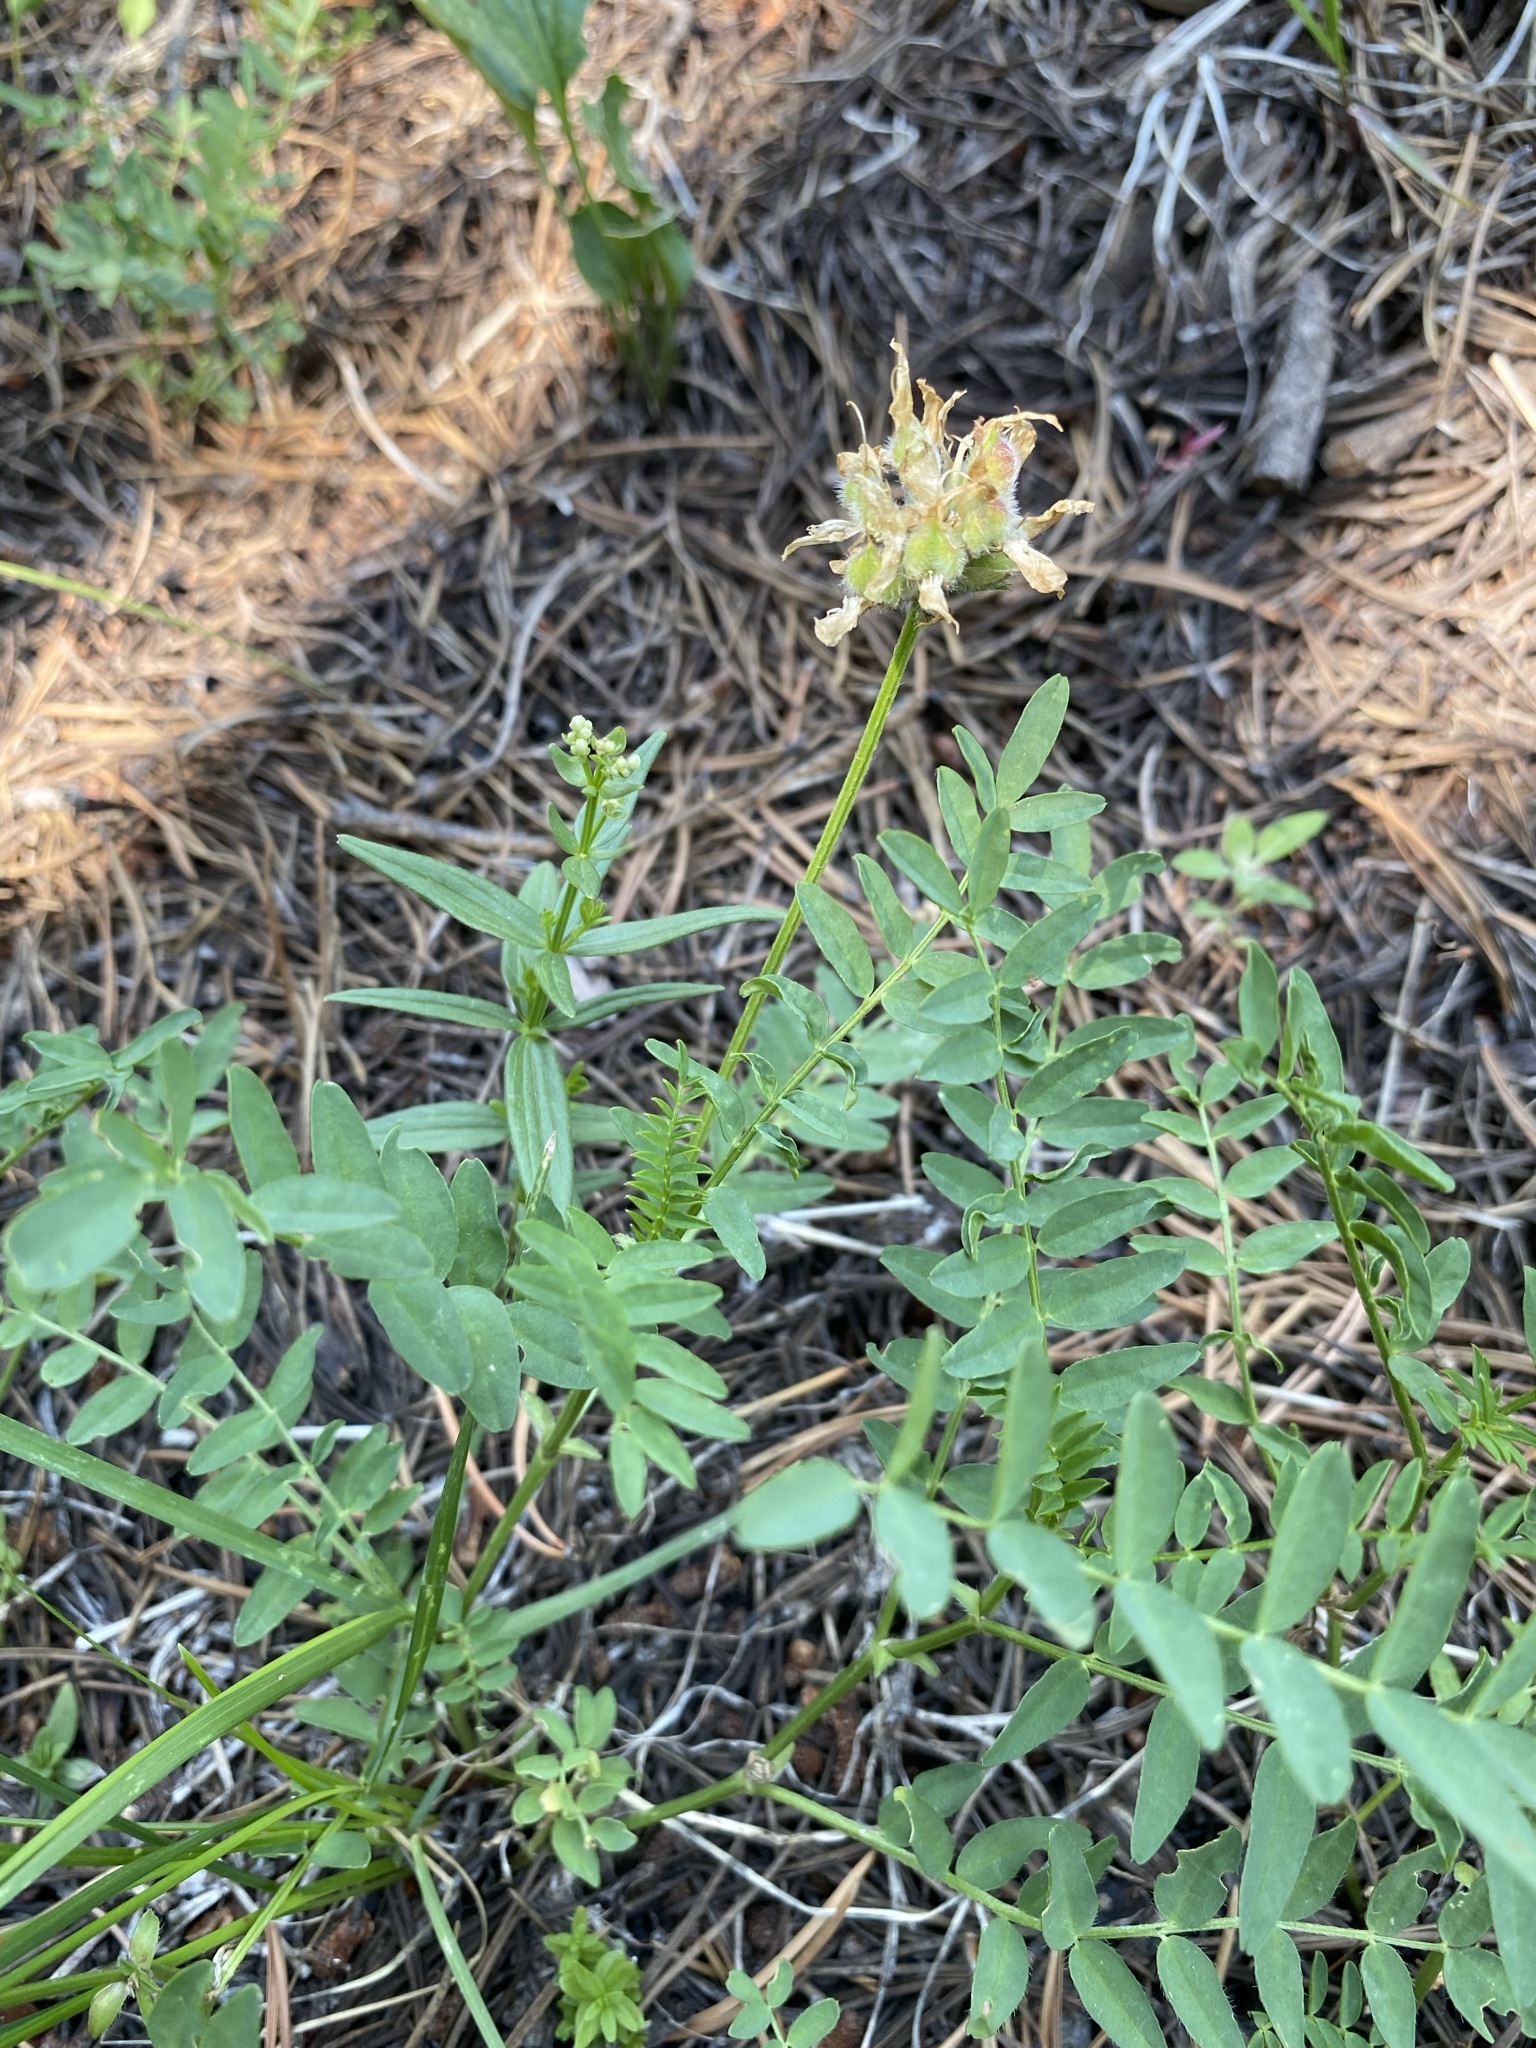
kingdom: Plantae
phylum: Tracheophyta
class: Magnoliopsida
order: Fabales
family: Fabaceae
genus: Astragalus
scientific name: Astragalus agrestis
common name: Field milk-vetch
